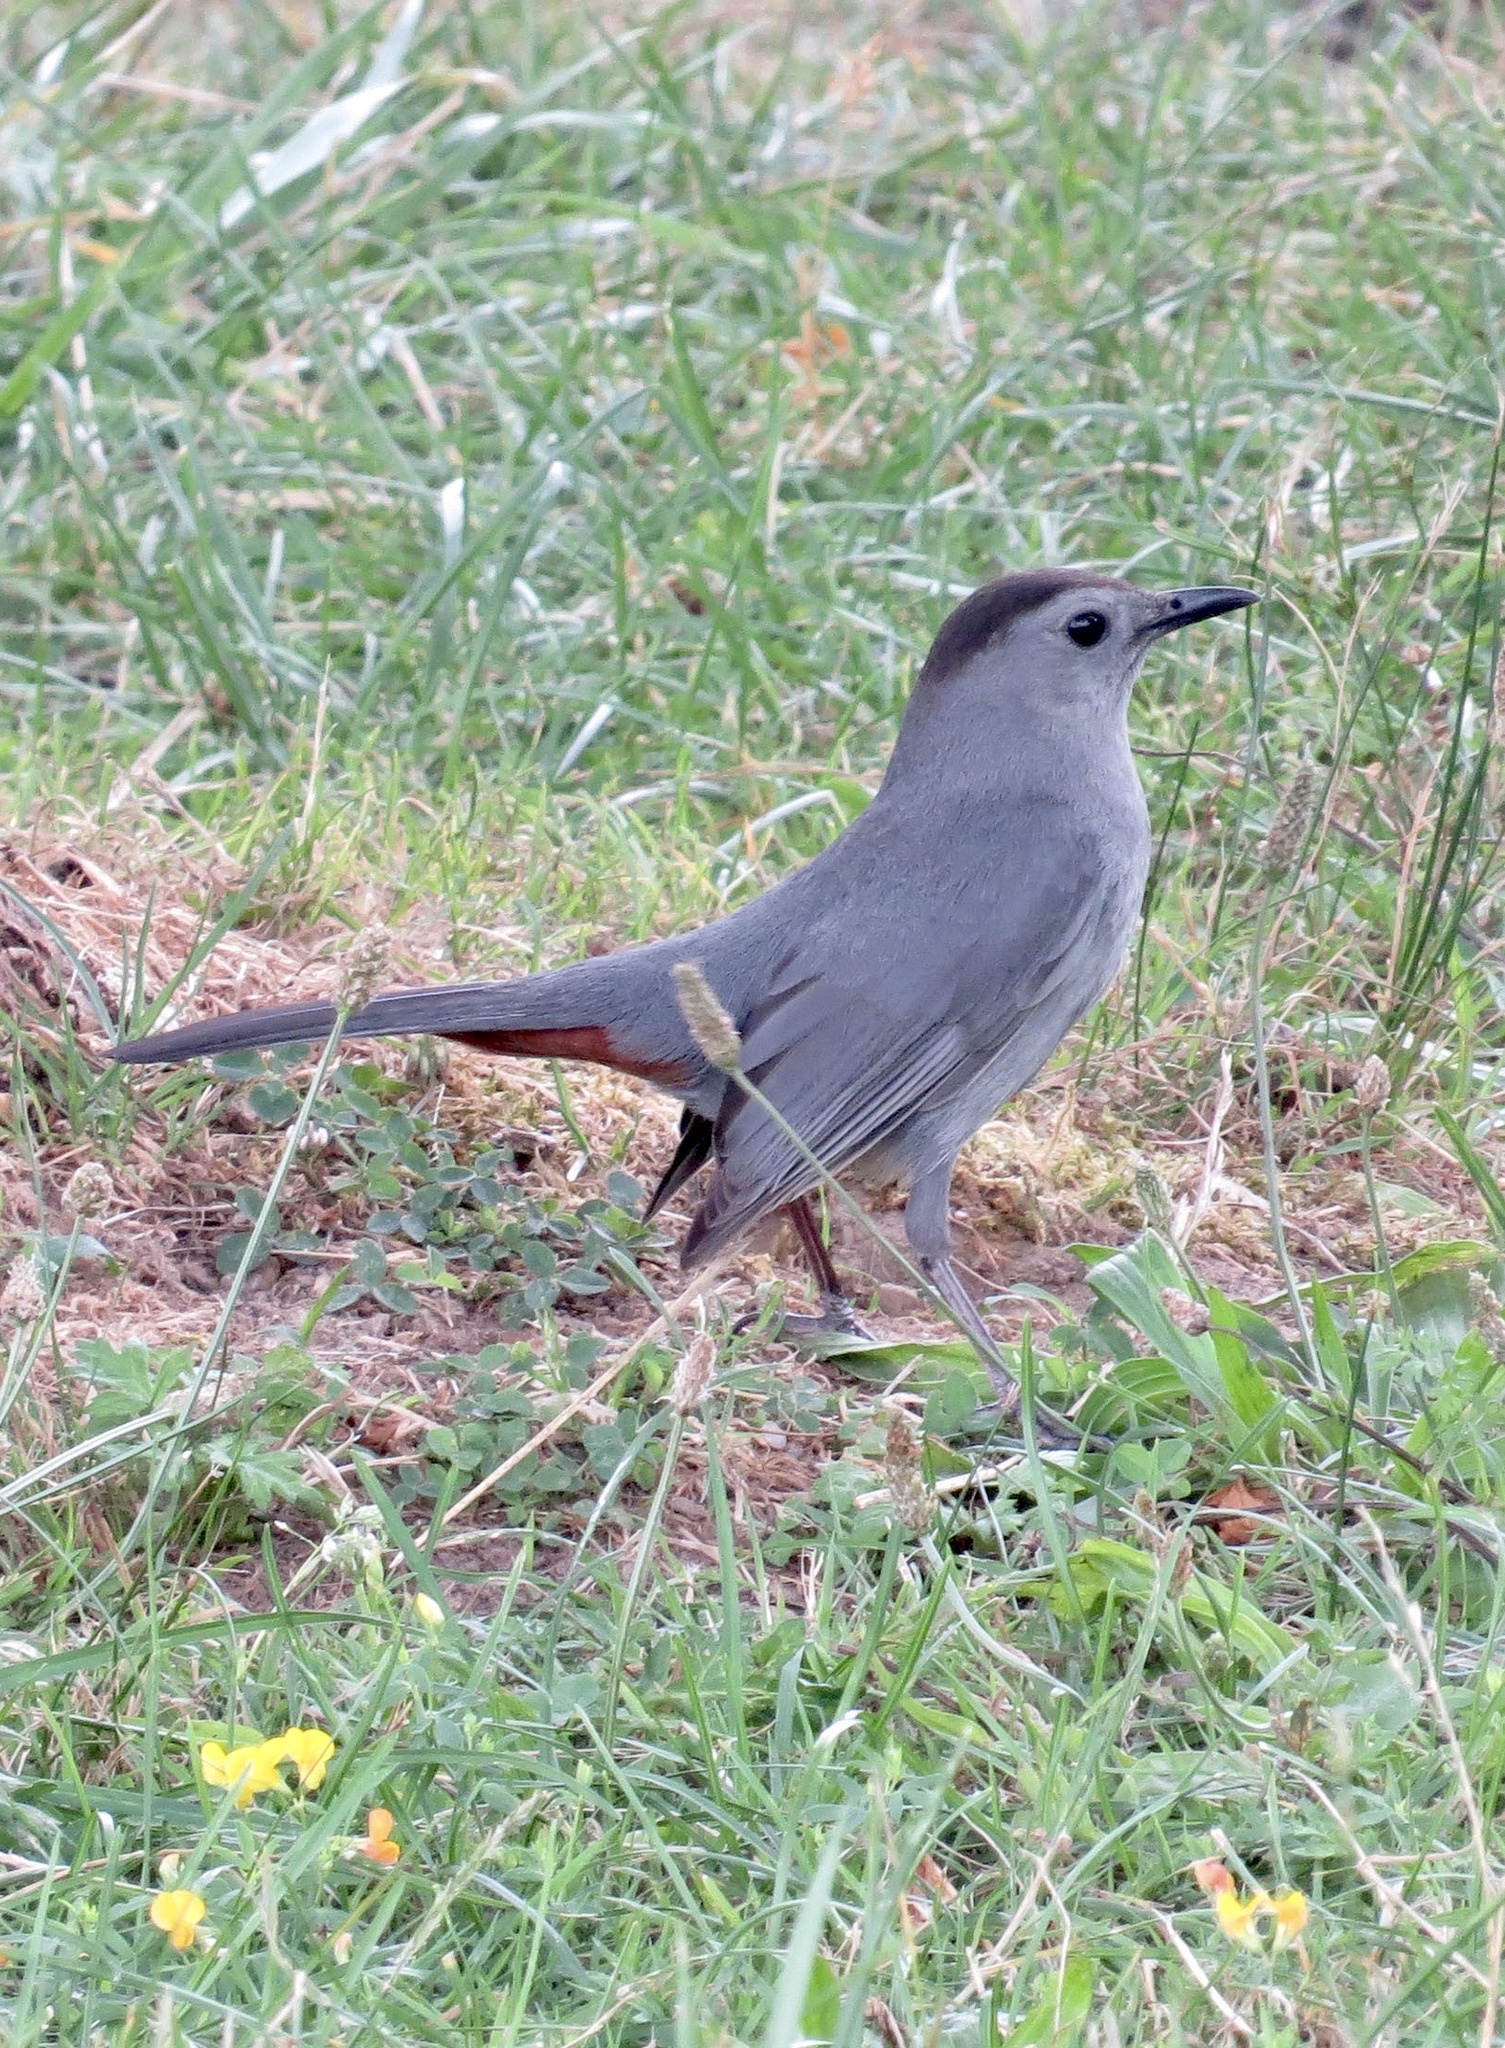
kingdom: Animalia
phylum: Chordata
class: Aves
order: Passeriformes
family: Mimidae
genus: Dumetella
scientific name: Dumetella carolinensis
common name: Gray catbird
